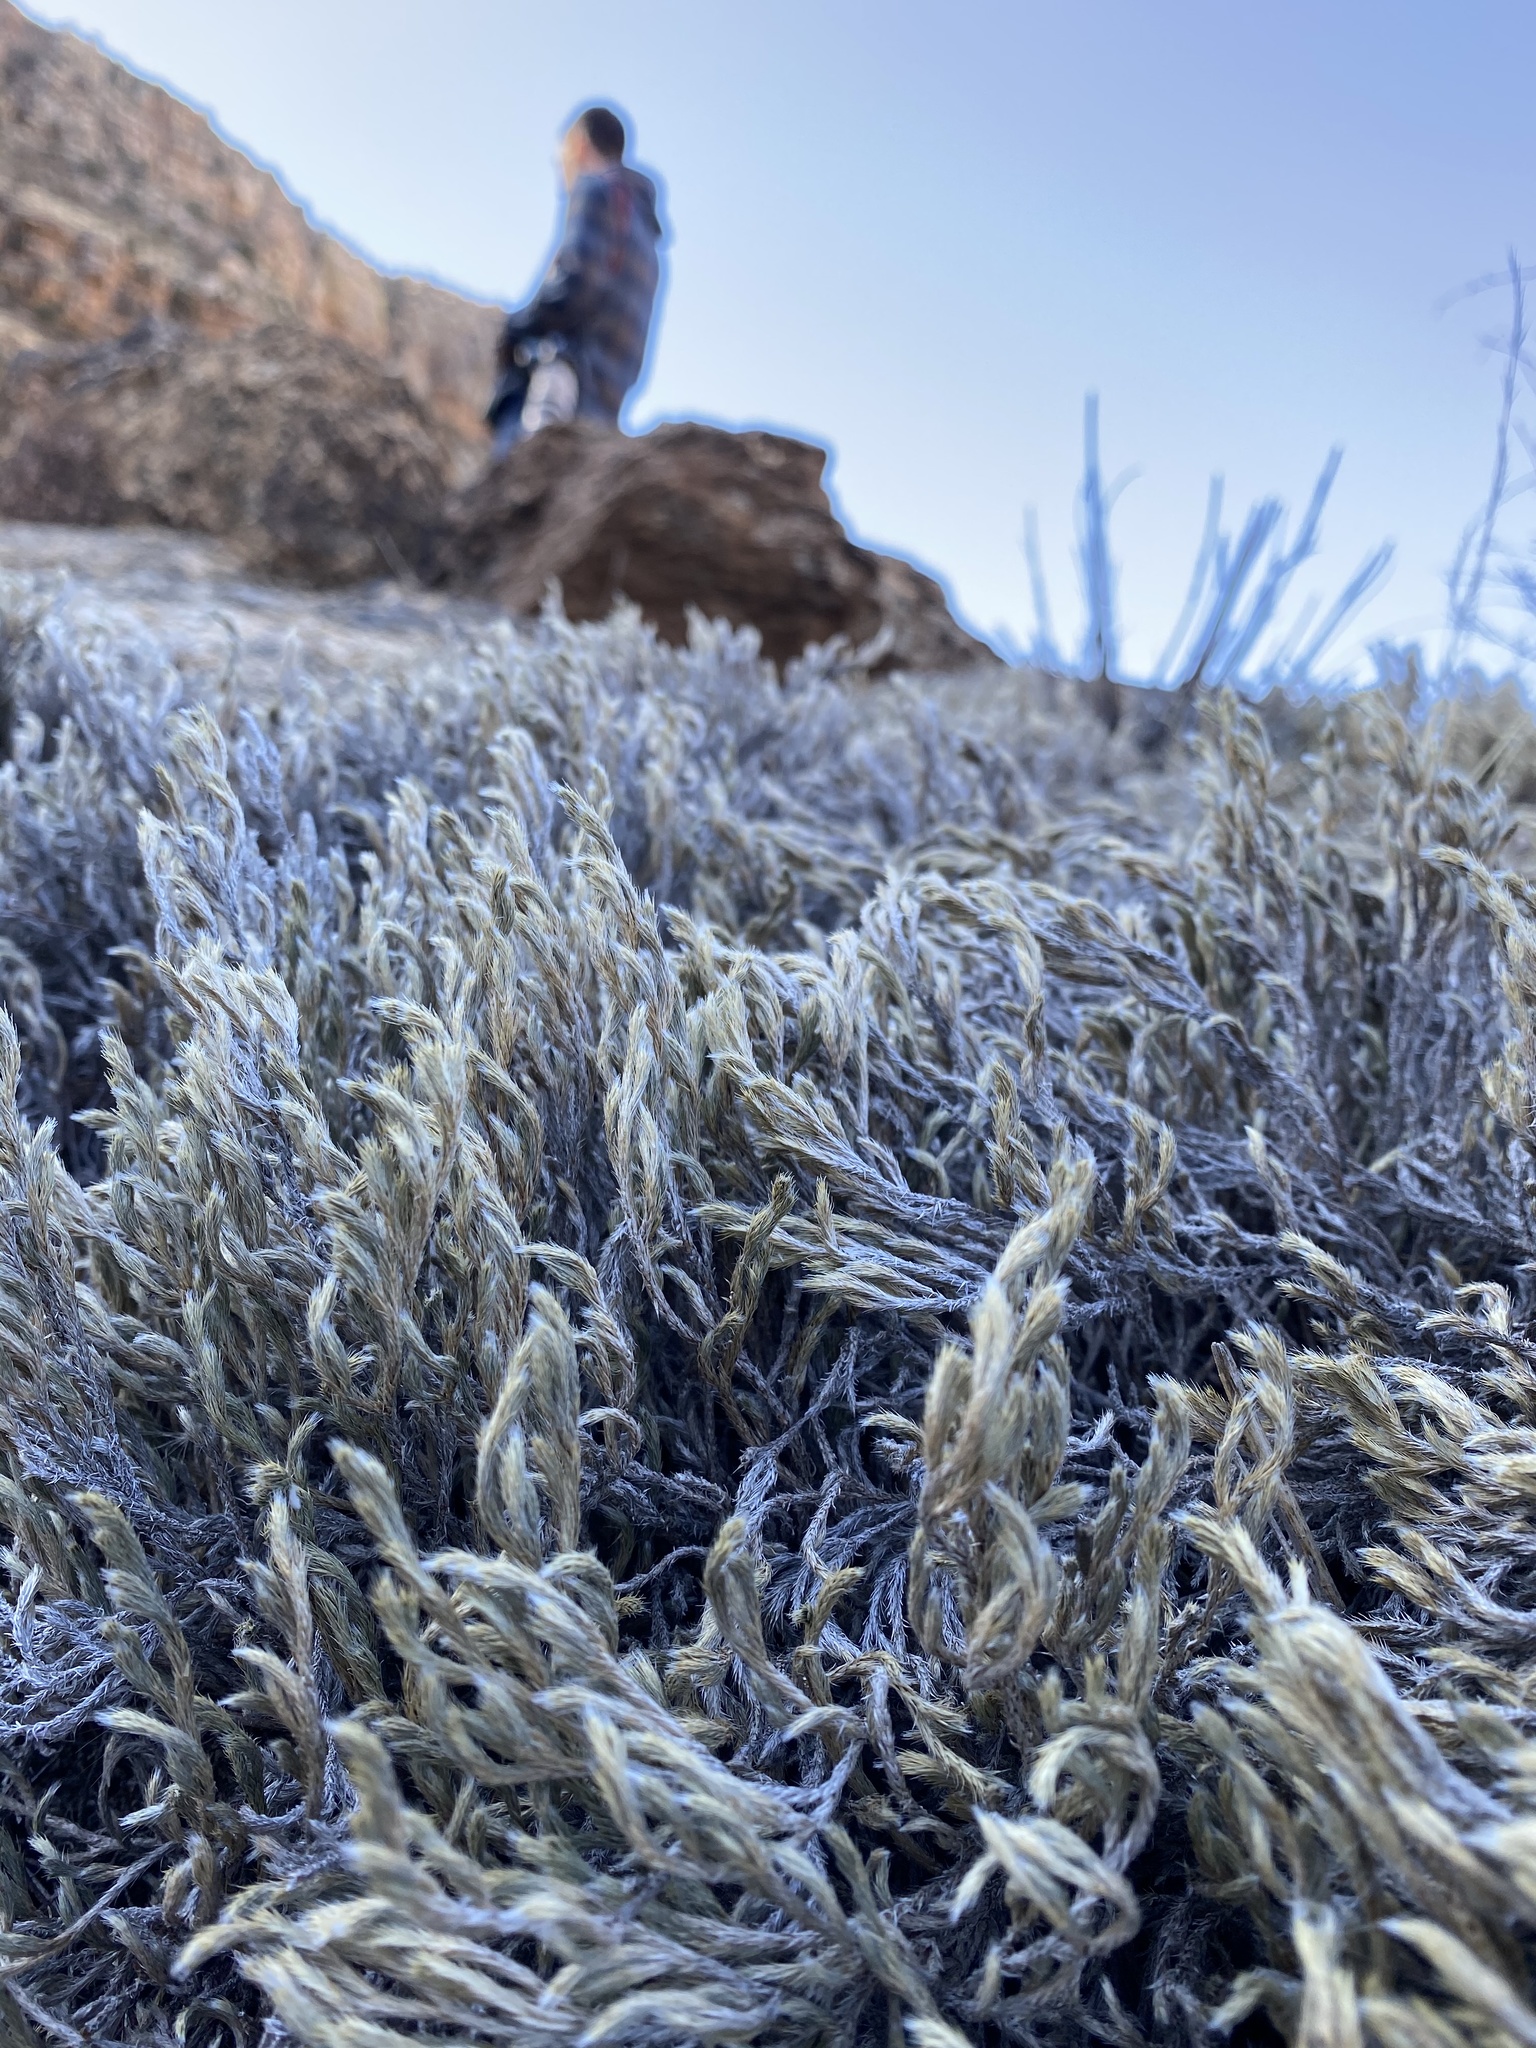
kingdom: Plantae
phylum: Tracheophyta
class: Lycopodiopsida
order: Selaginellales
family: Selaginellaceae
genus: Selaginella
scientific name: Selaginella rupincola
